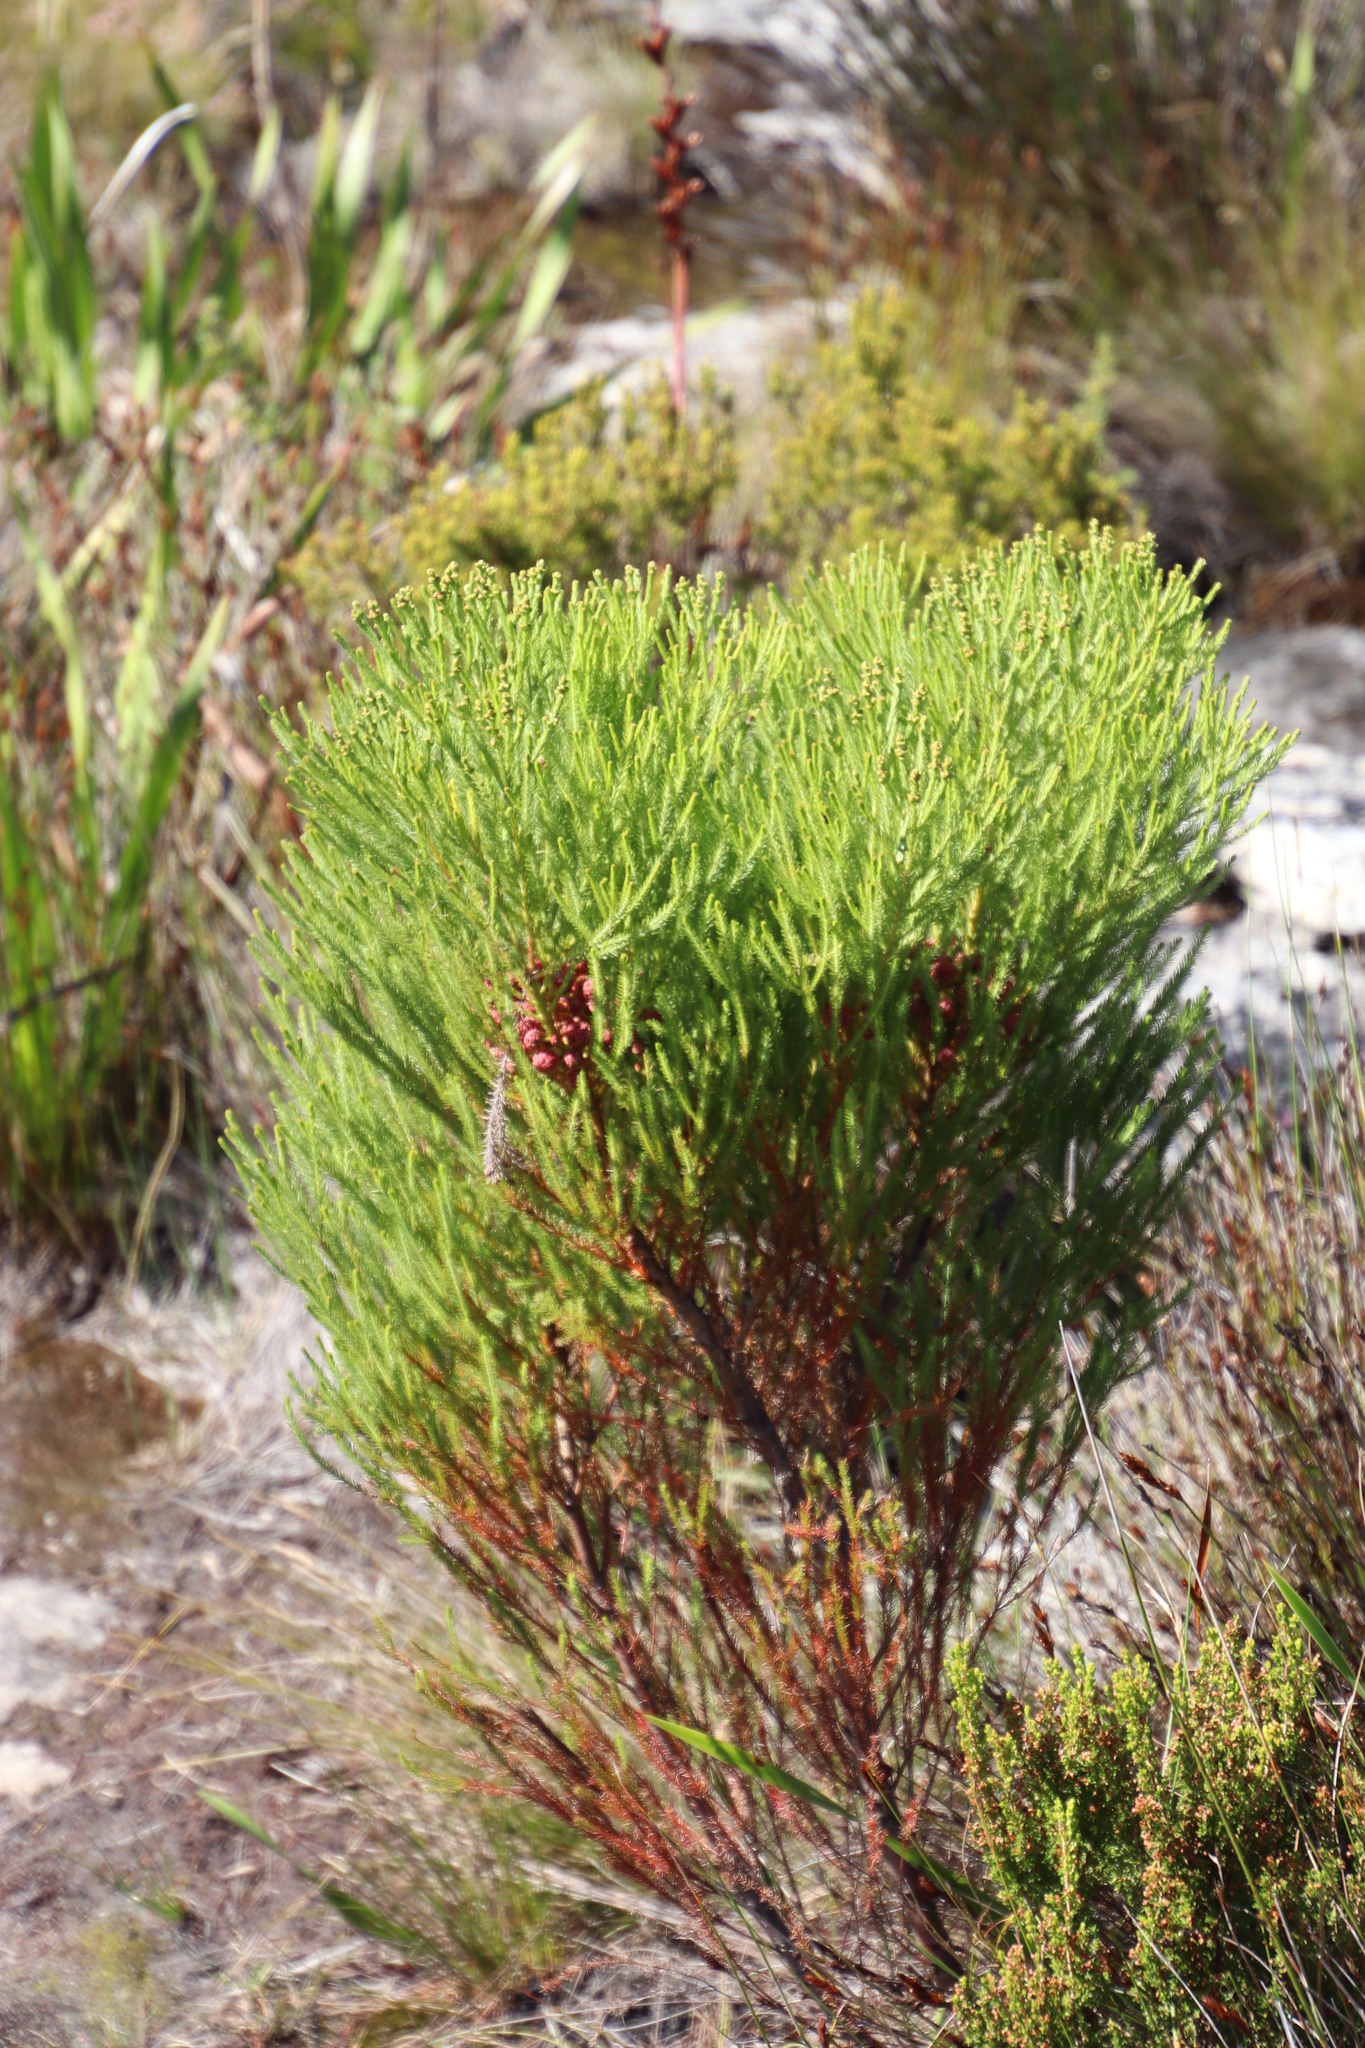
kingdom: Plantae
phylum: Tracheophyta
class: Magnoliopsida
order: Bruniales
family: Bruniaceae
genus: Berzelia
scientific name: Berzelia lanuginosa
